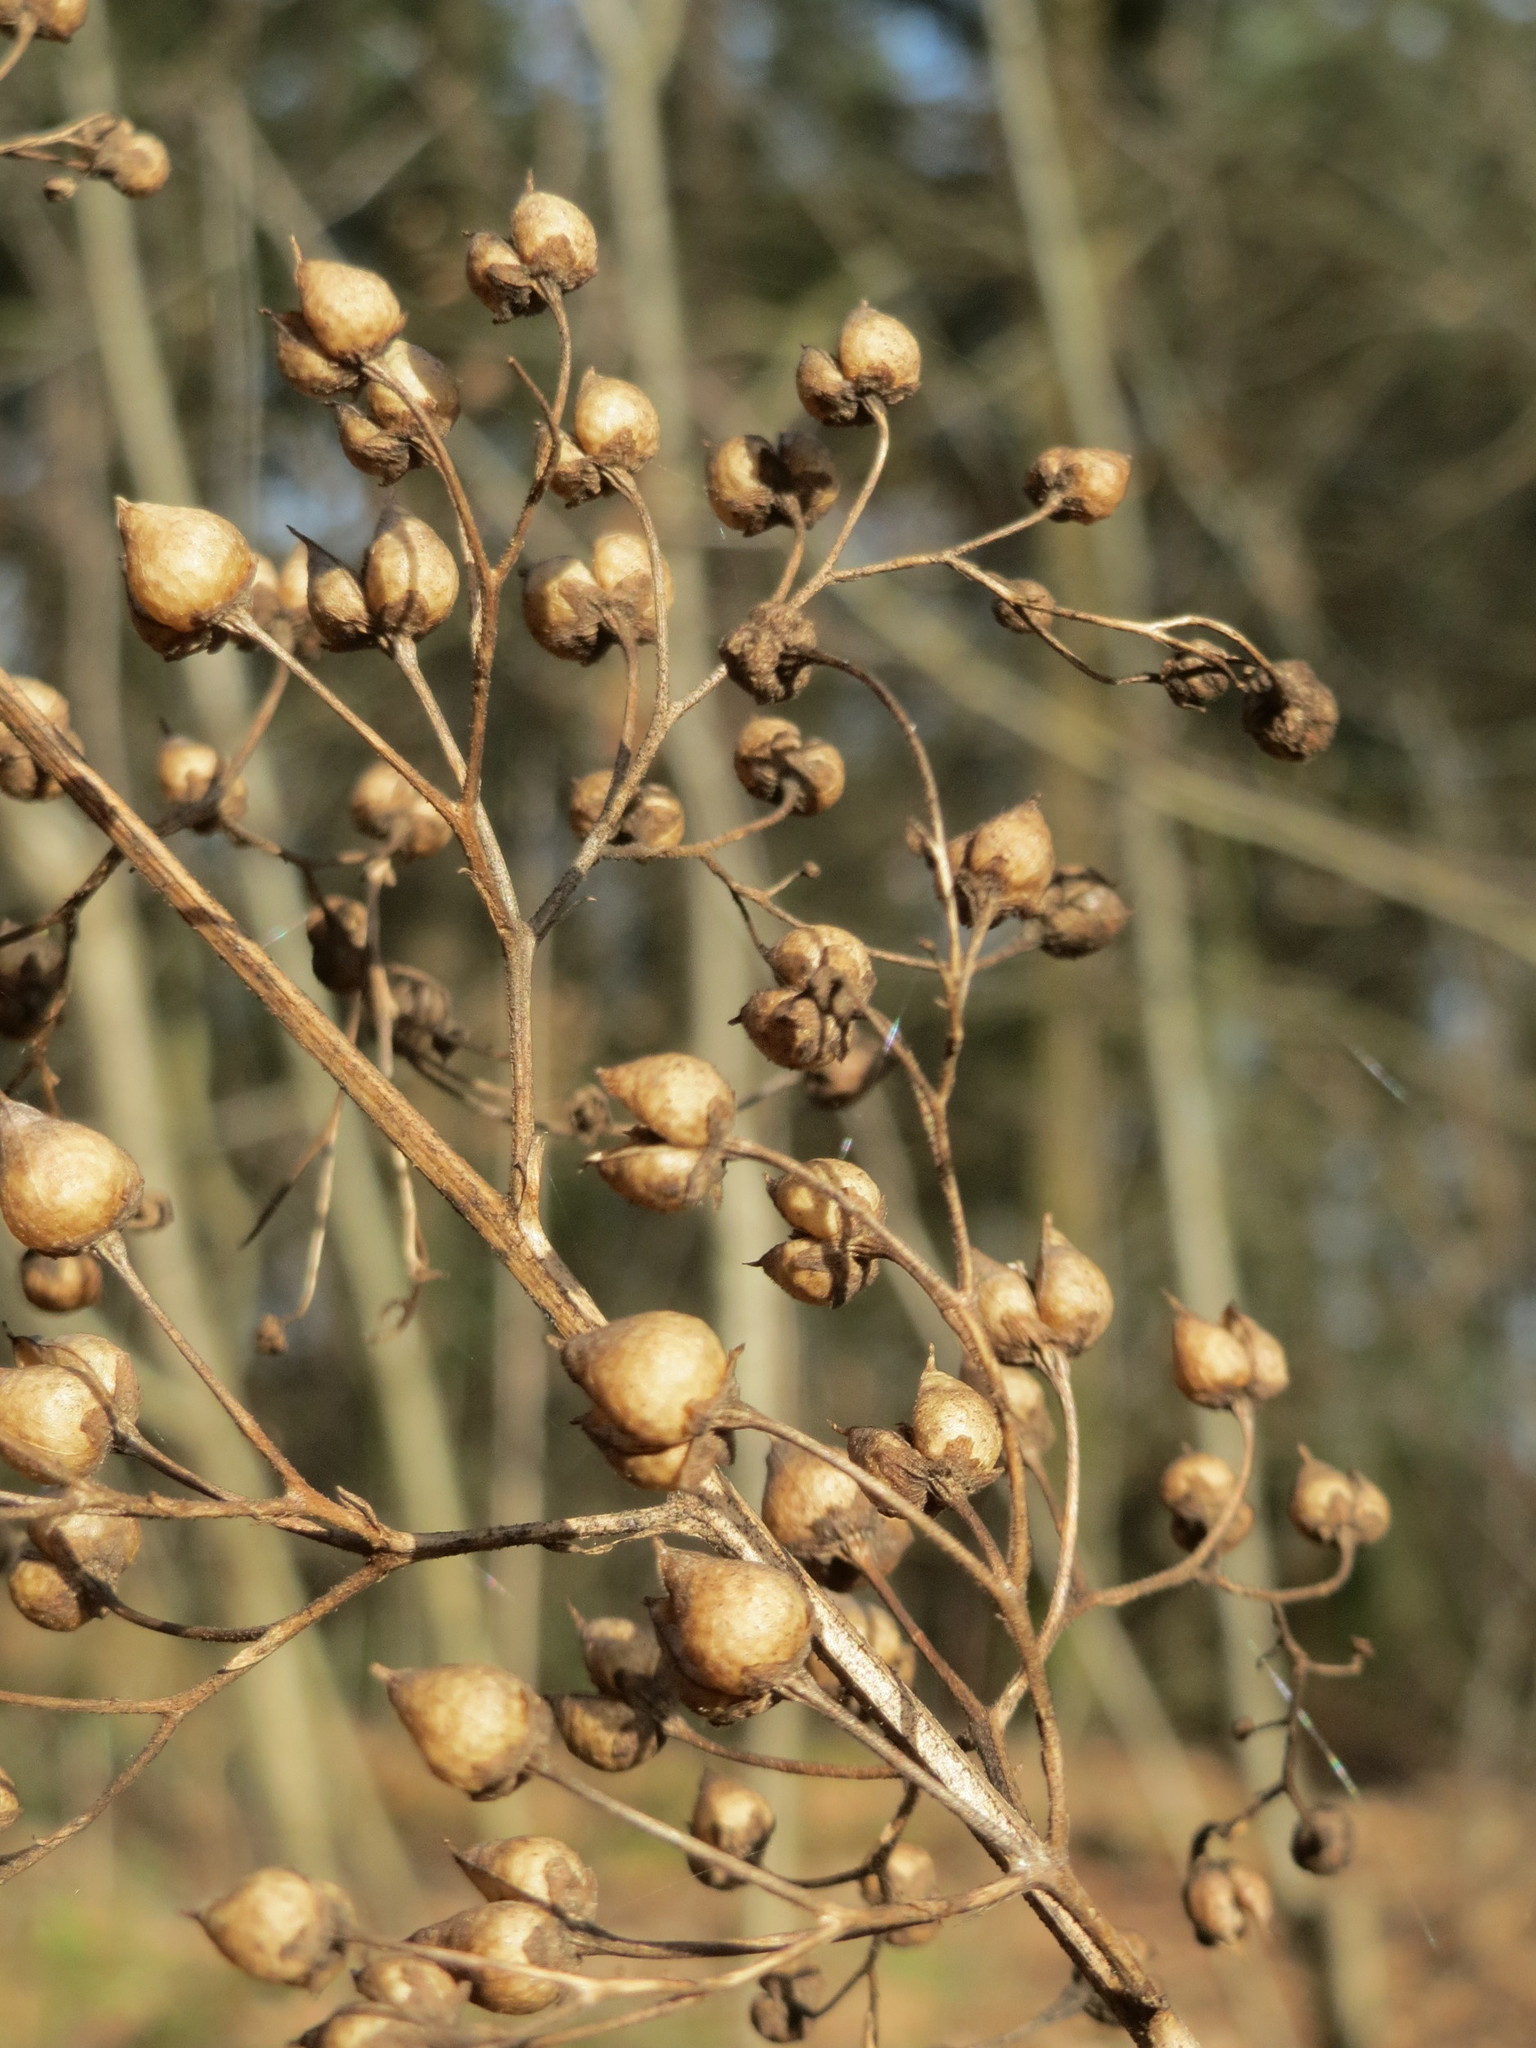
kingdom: Plantae
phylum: Tracheophyta
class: Magnoliopsida
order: Lamiales
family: Scrophulariaceae
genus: Scrophularia
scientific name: Scrophularia nodosa
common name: Common figwort
